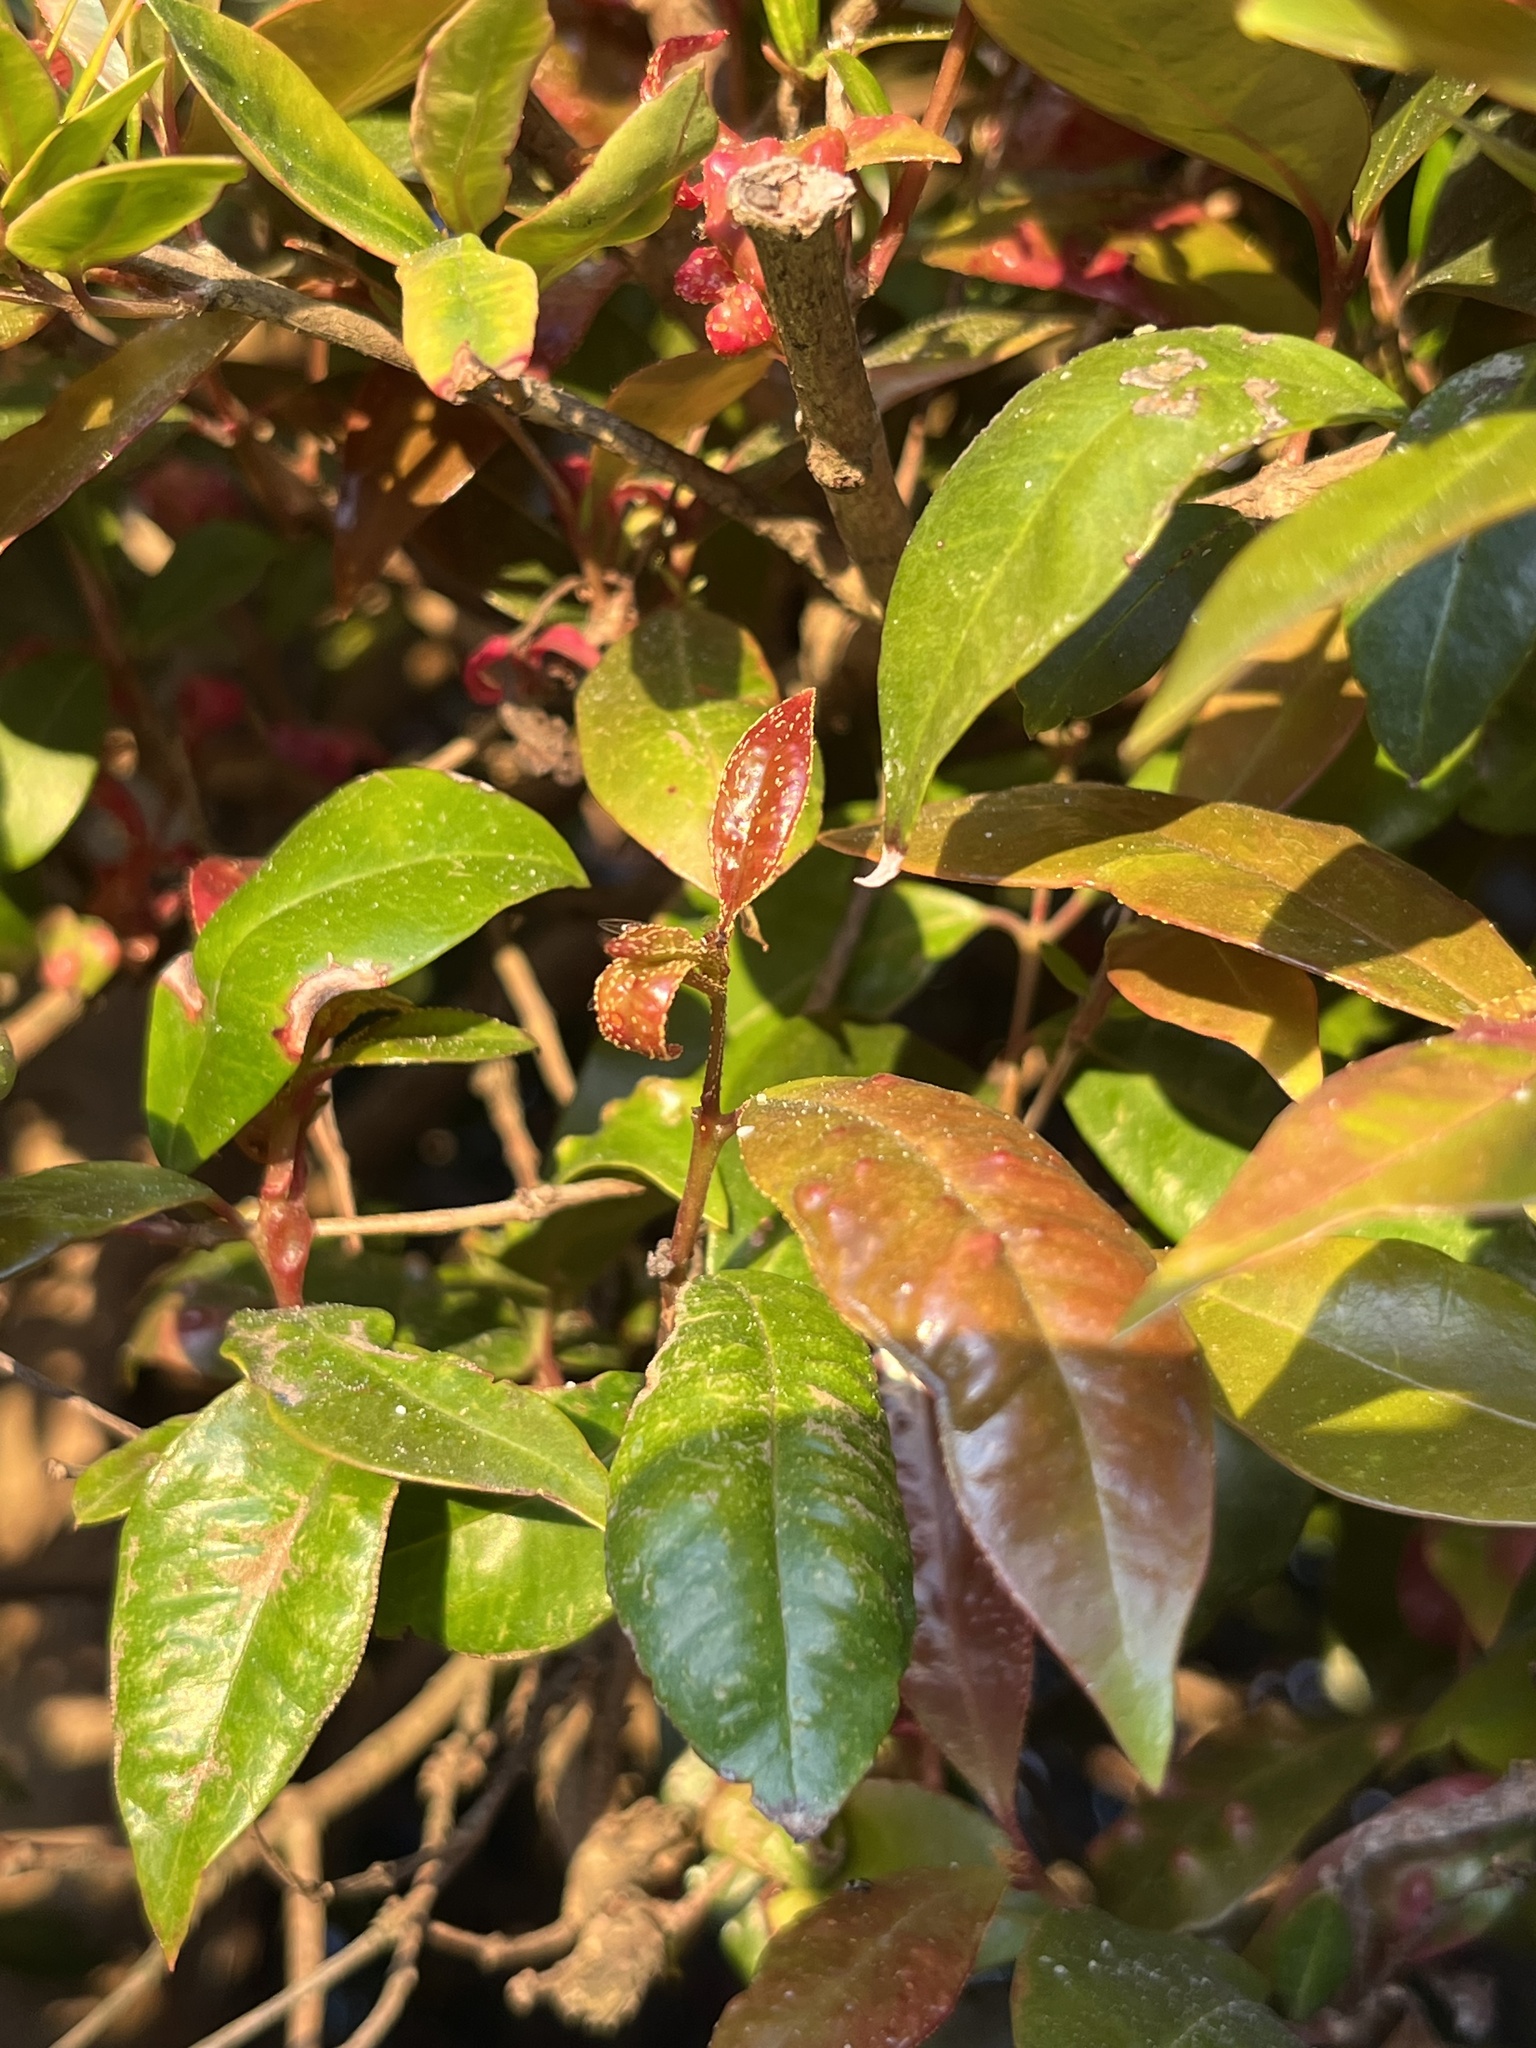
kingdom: Fungi
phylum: Basidiomycota
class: Pucciniomycetes
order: Pucciniales
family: Sphaerophragmiaceae
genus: Austropuccinia
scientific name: Austropuccinia psidii
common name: Myrtle rust
